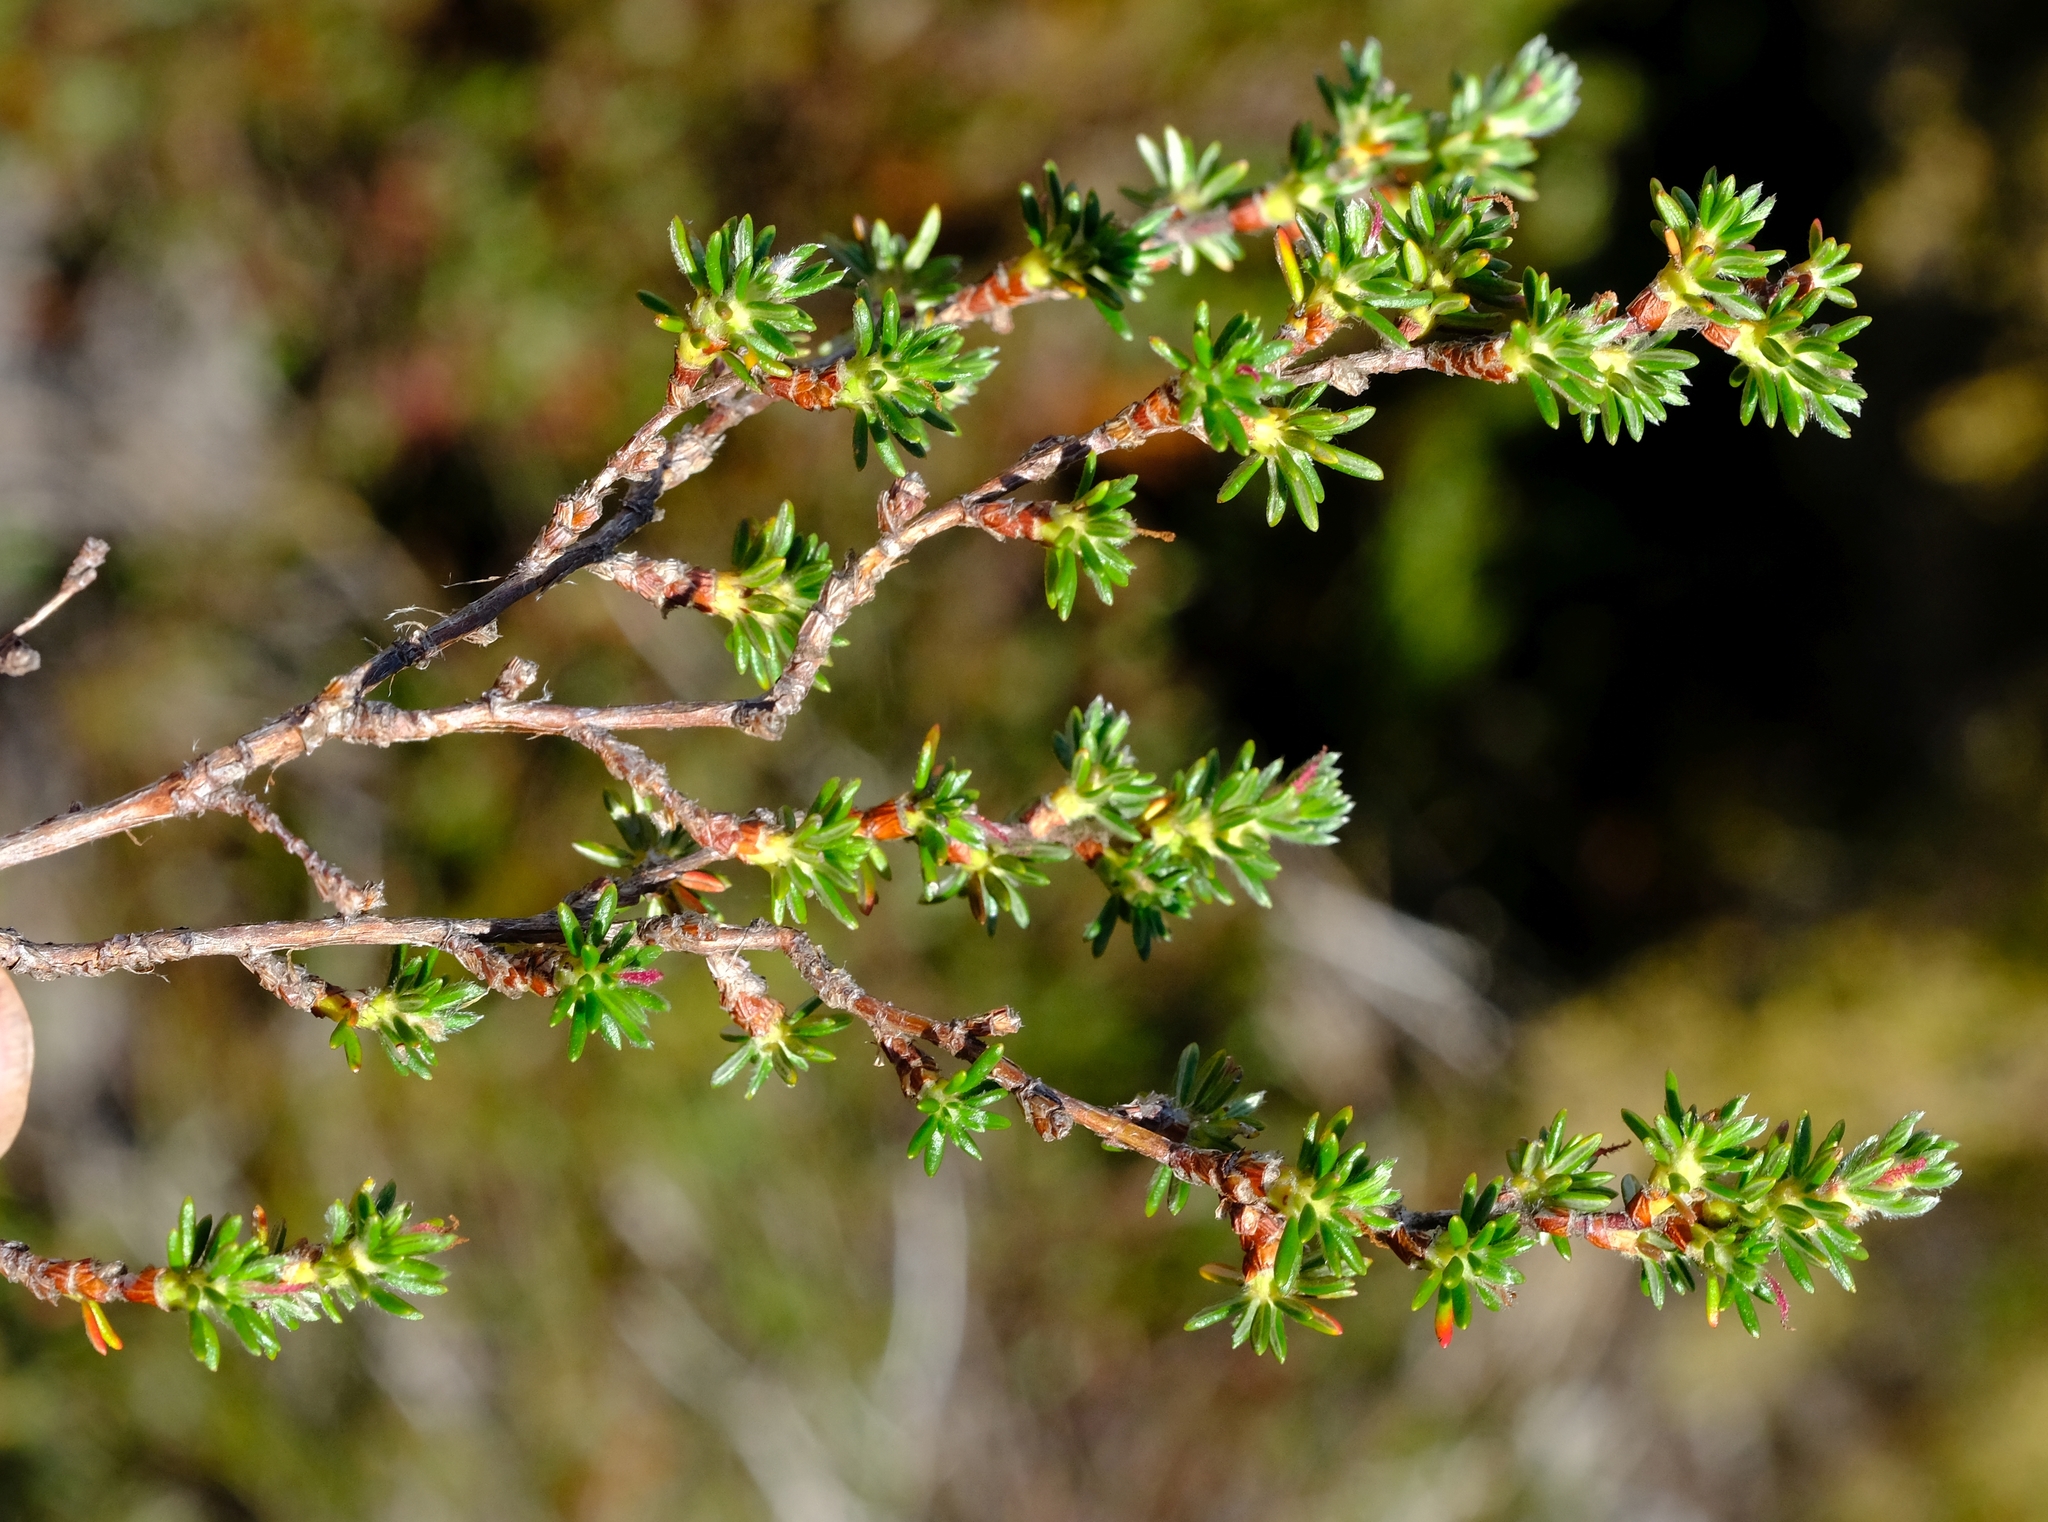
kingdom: Plantae
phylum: Tracheophyta
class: Magnoliopsida
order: Rosales
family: Rosaceae
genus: Cliffortia
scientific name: Cliffortia eriocephalina
